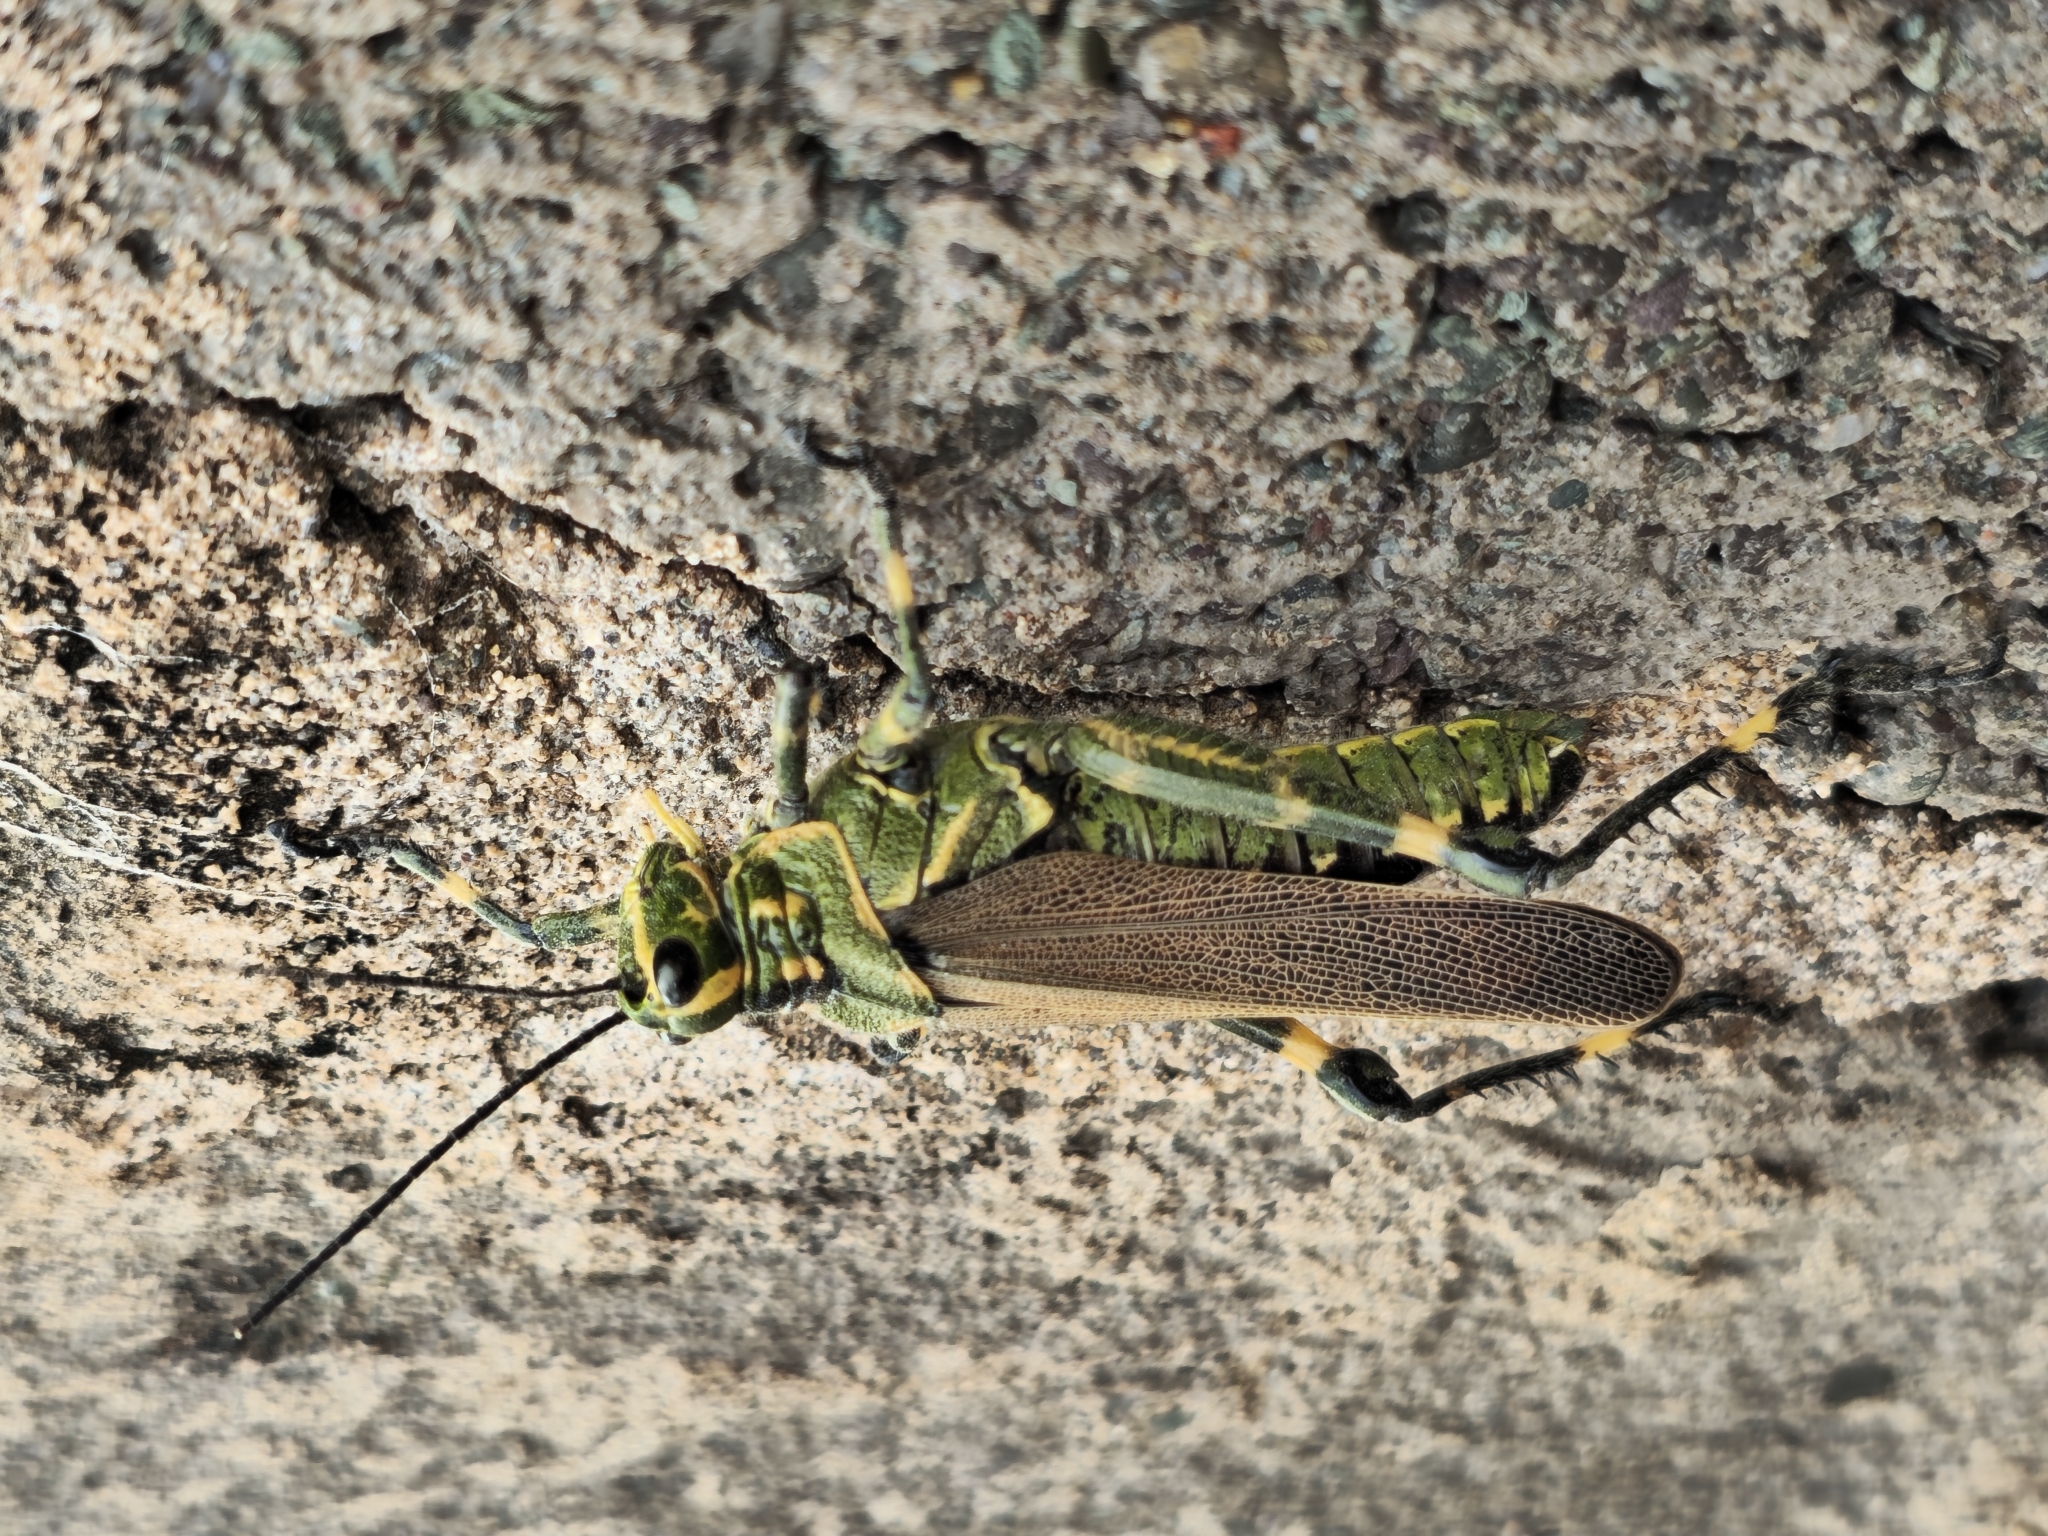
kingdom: Animalia
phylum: Arthropoda
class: Insecta
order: Orthoptera
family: Romaleidae
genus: Chromacris
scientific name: Chromacris speciosa
